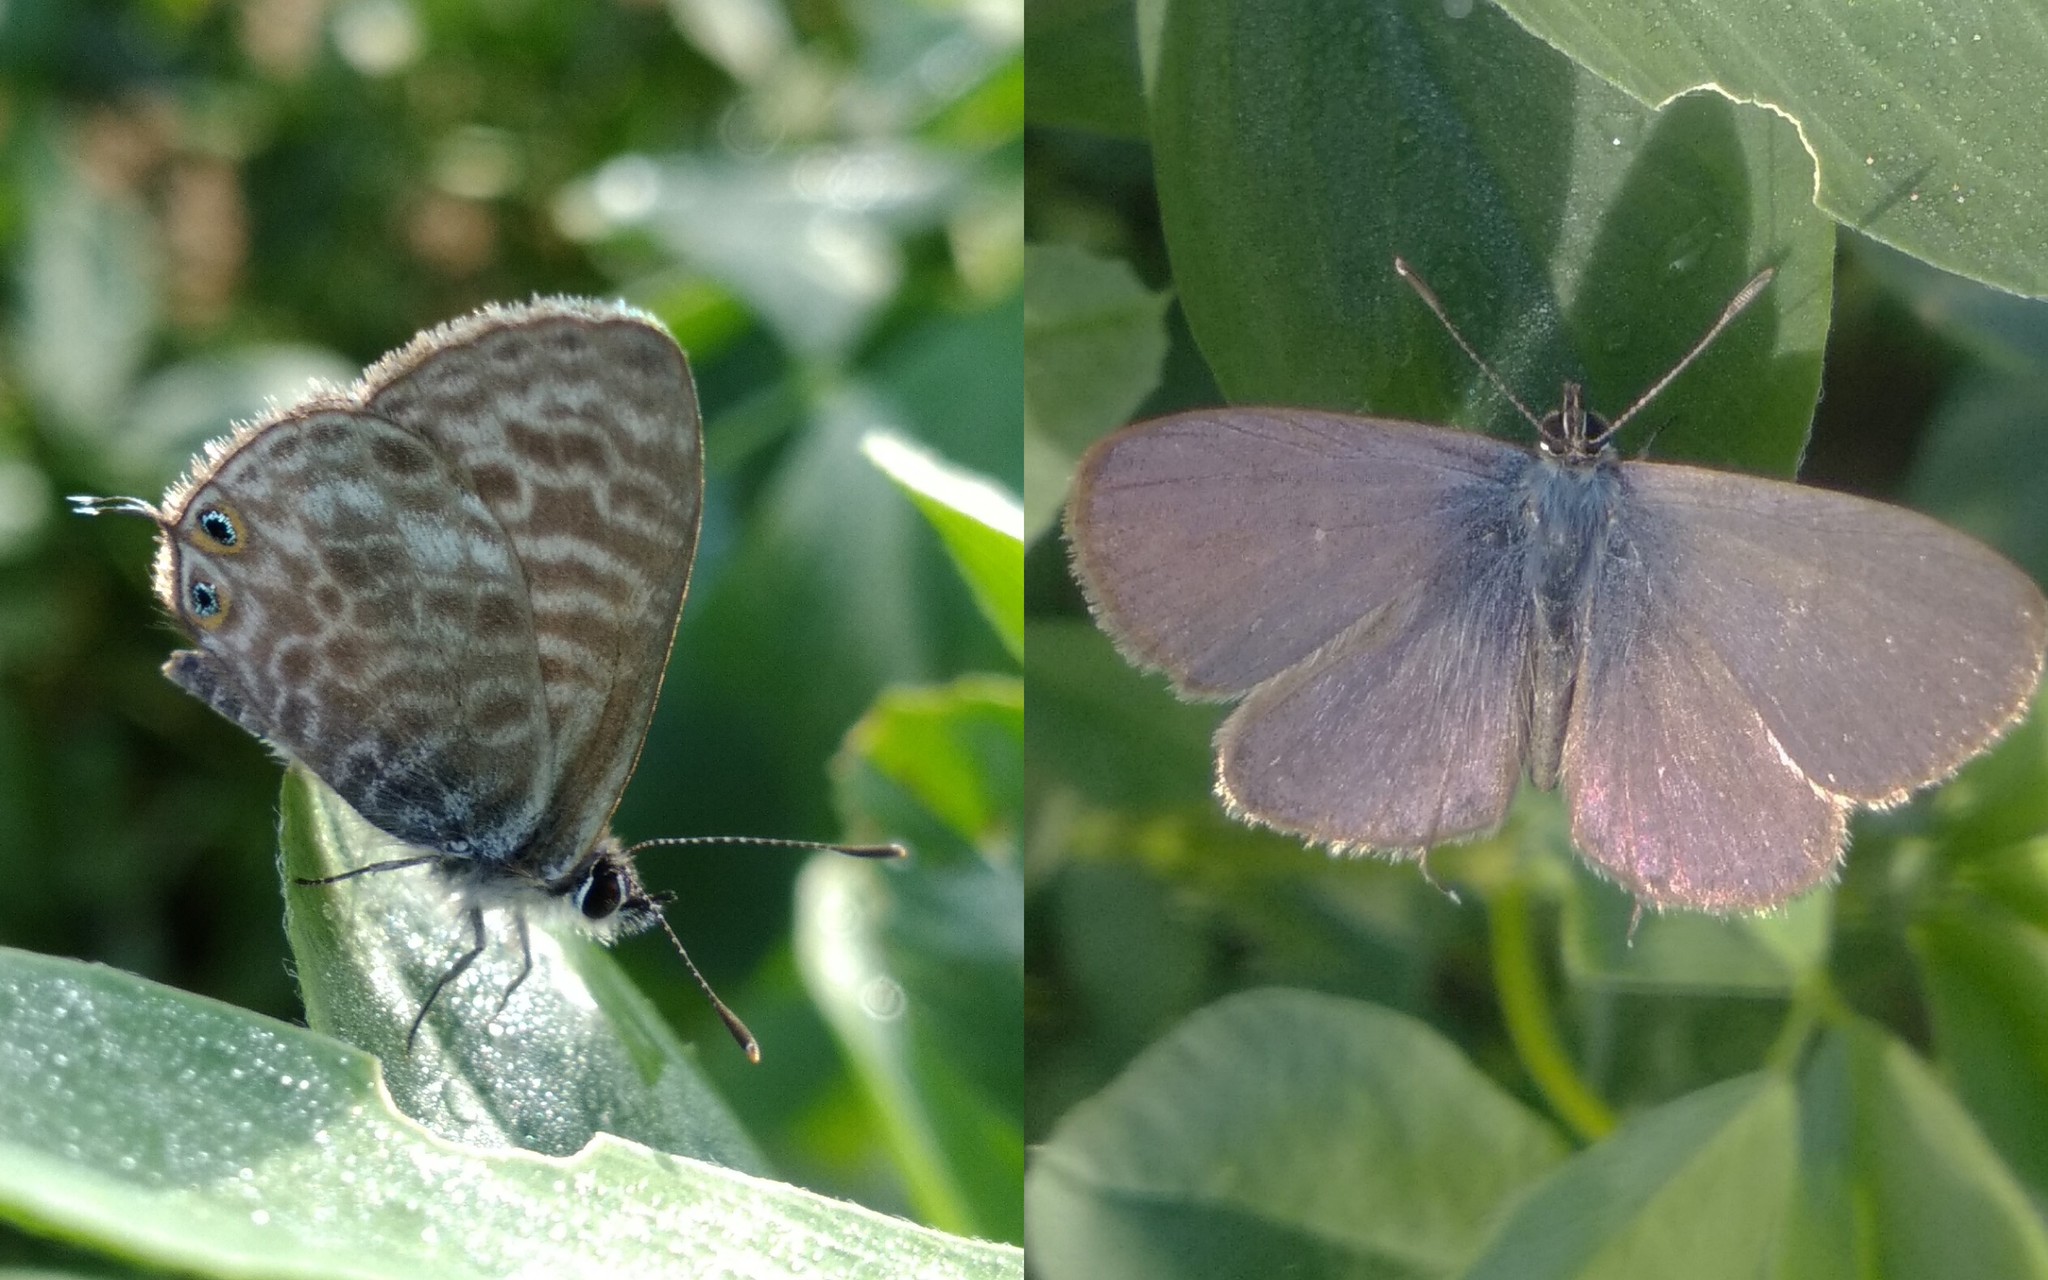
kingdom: Animalia
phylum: Arthropoda
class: Insecta
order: Lepidoptera
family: Lycaenidae
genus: Leptotes
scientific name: Leptotes pirithous
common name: Lang's short-tailed blue
